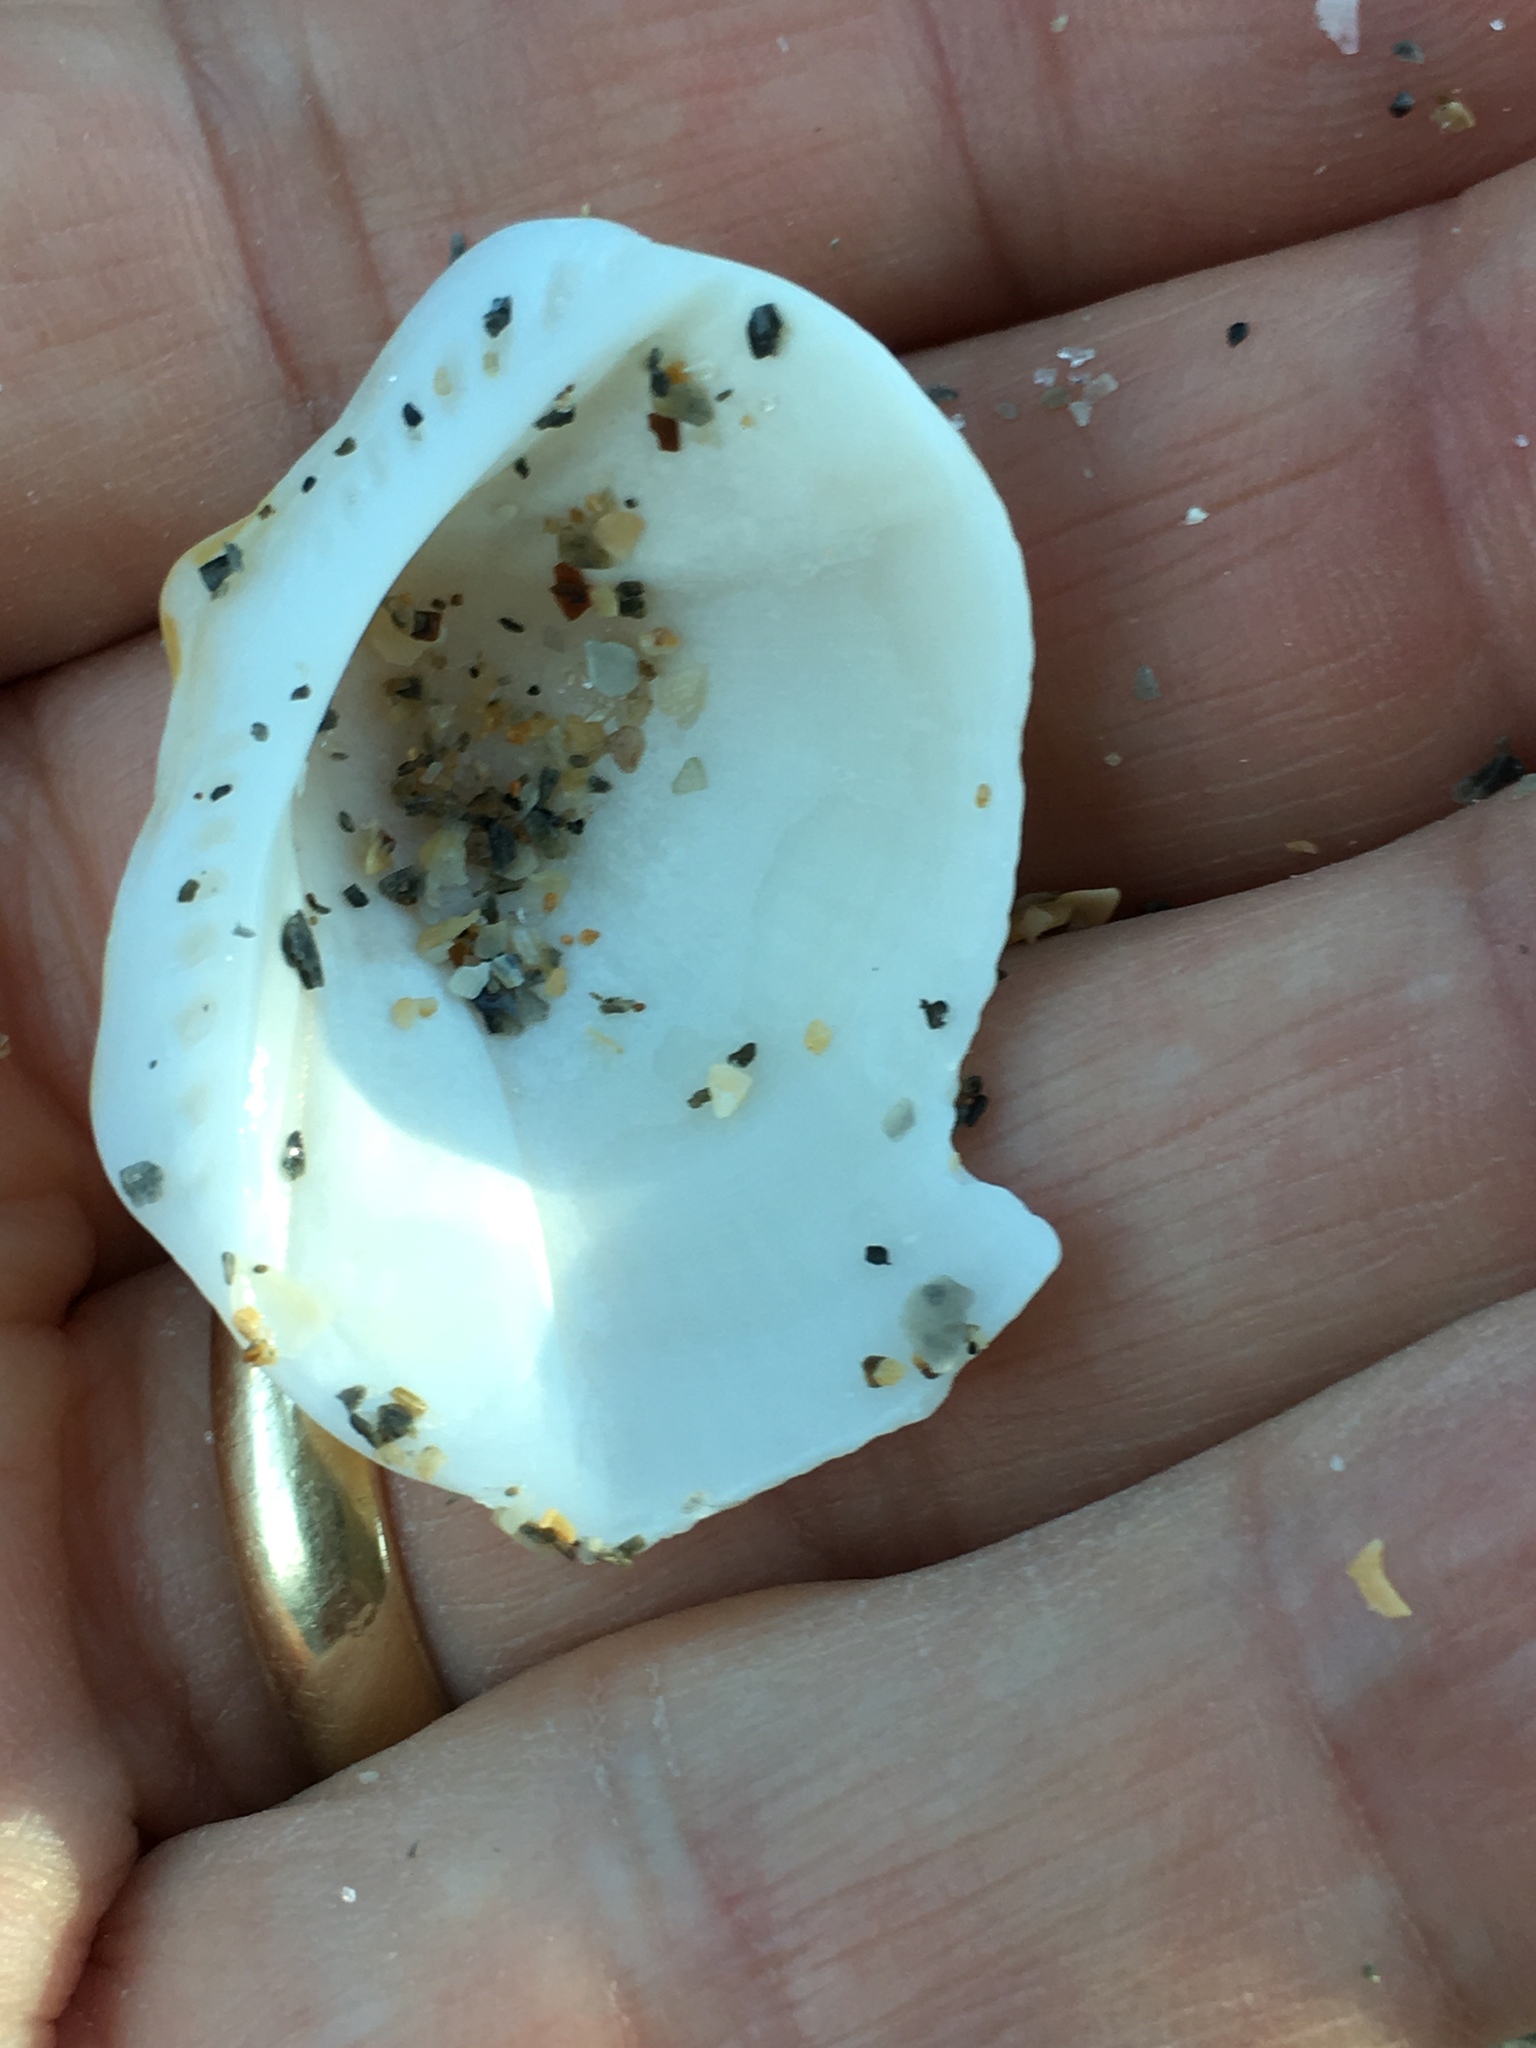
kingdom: Animalia
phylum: Mollusca
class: Bivalvia
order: Arcida
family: Glycymerididae
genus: Glycymeris
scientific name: Glycymeris americana
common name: American bittersweet
